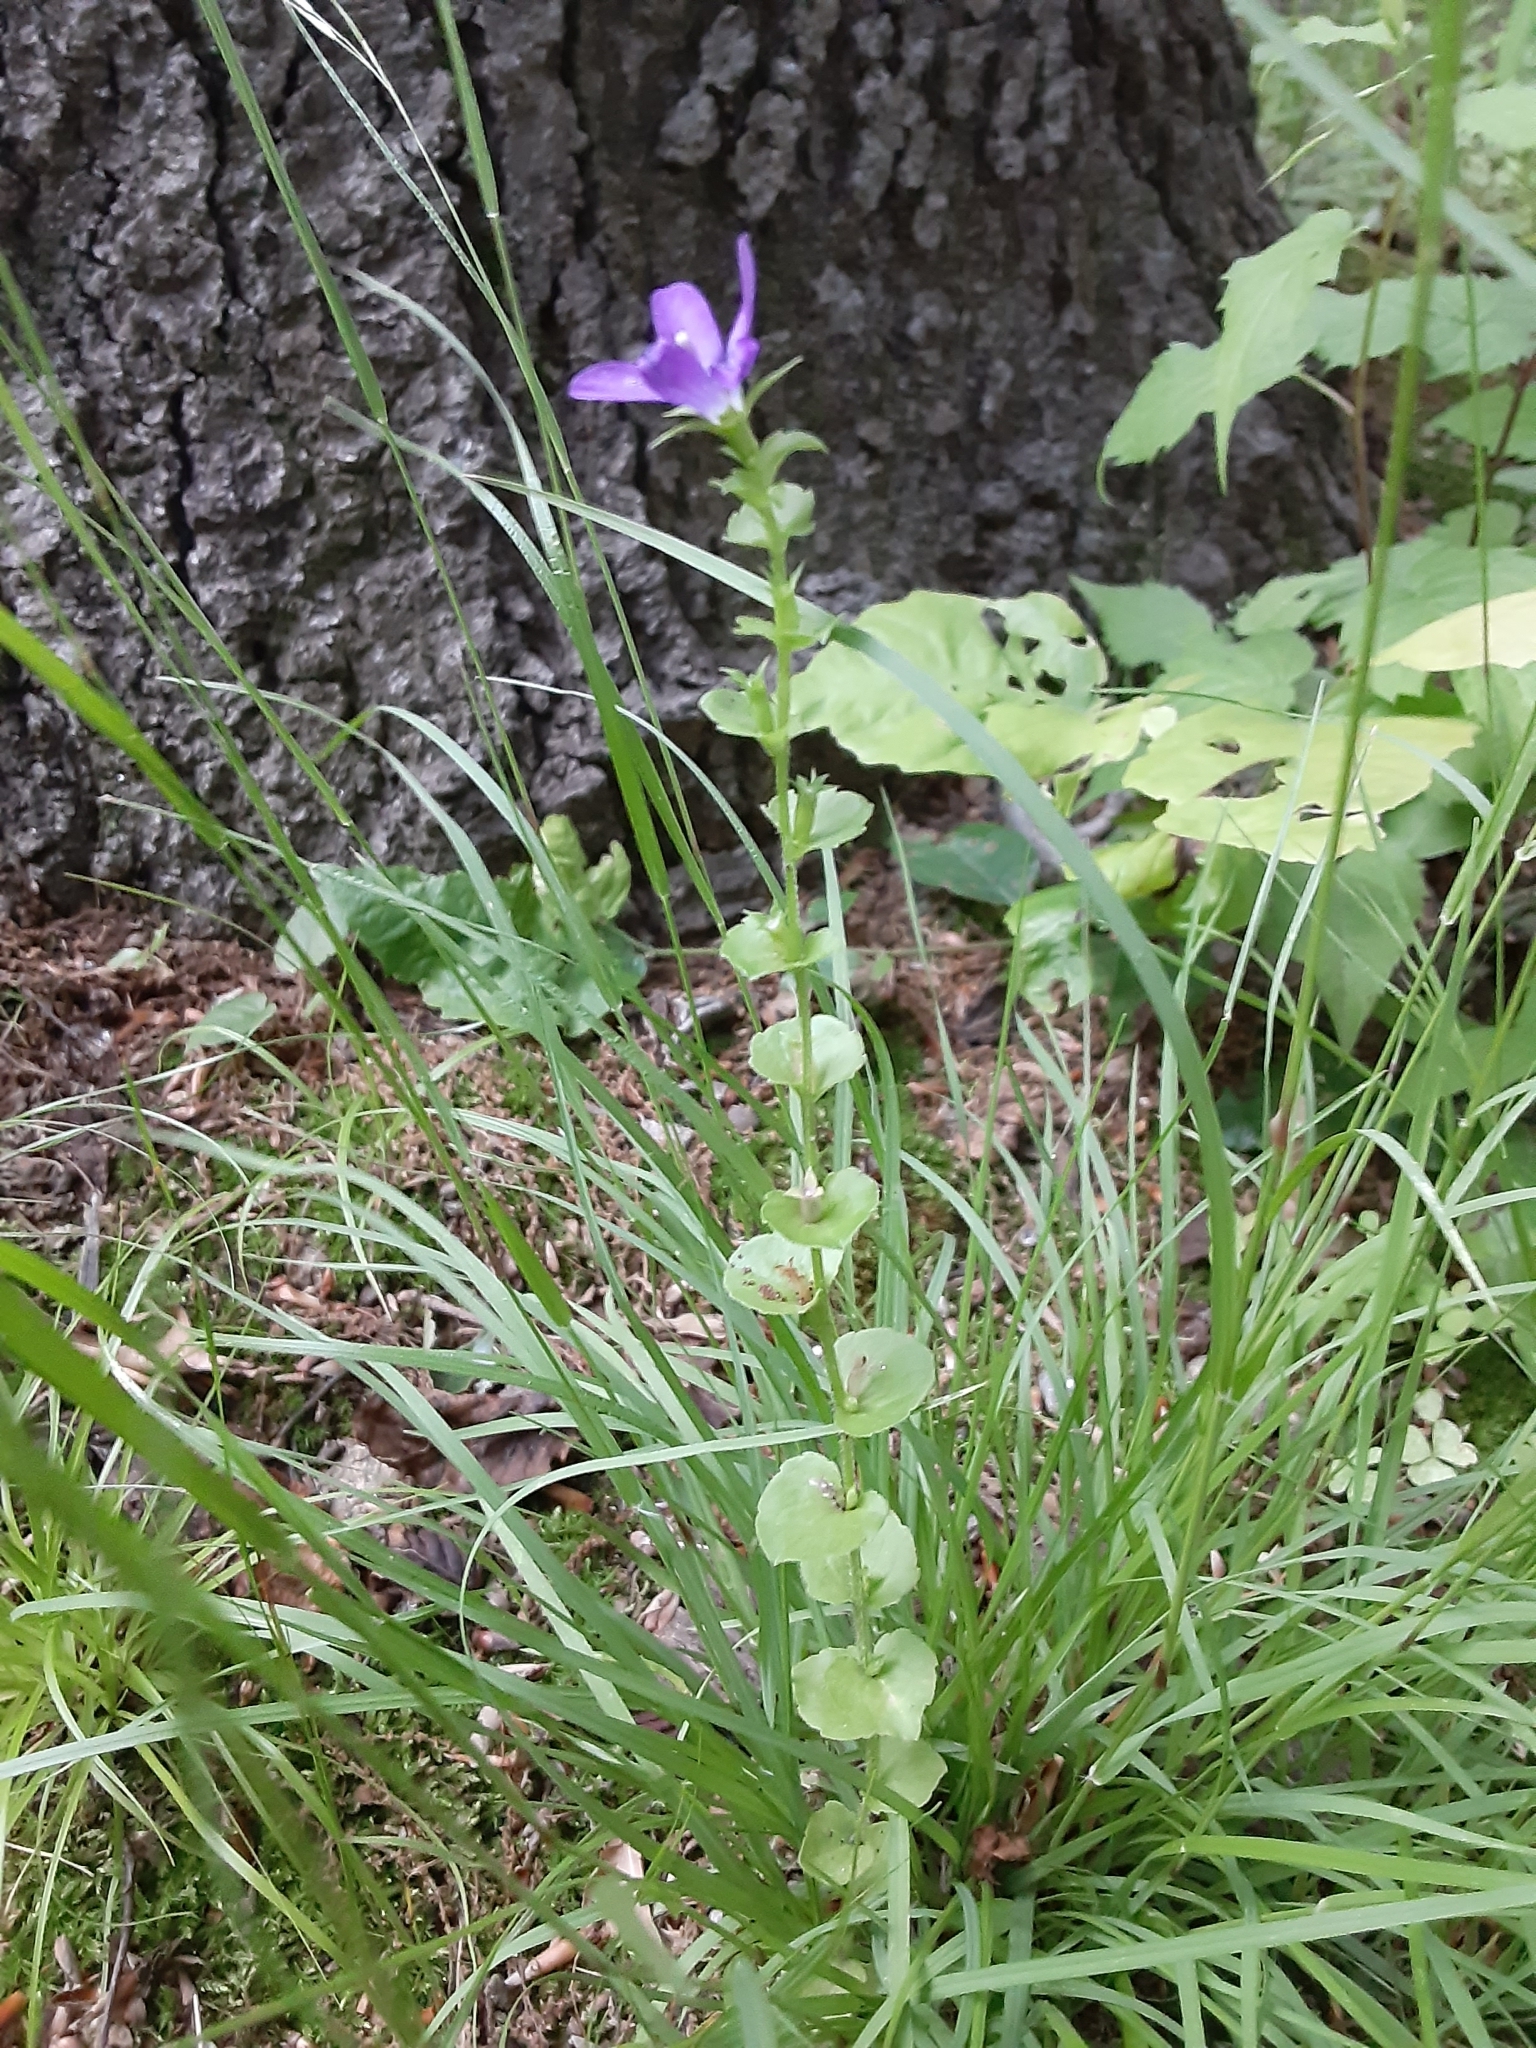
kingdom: Plantae
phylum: Tracheophyta
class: Magnoliopsida
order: Asterales
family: Campanulaceae
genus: Triodanis
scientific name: Triodanis perfoliata
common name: Clasping venus' looking-glass
